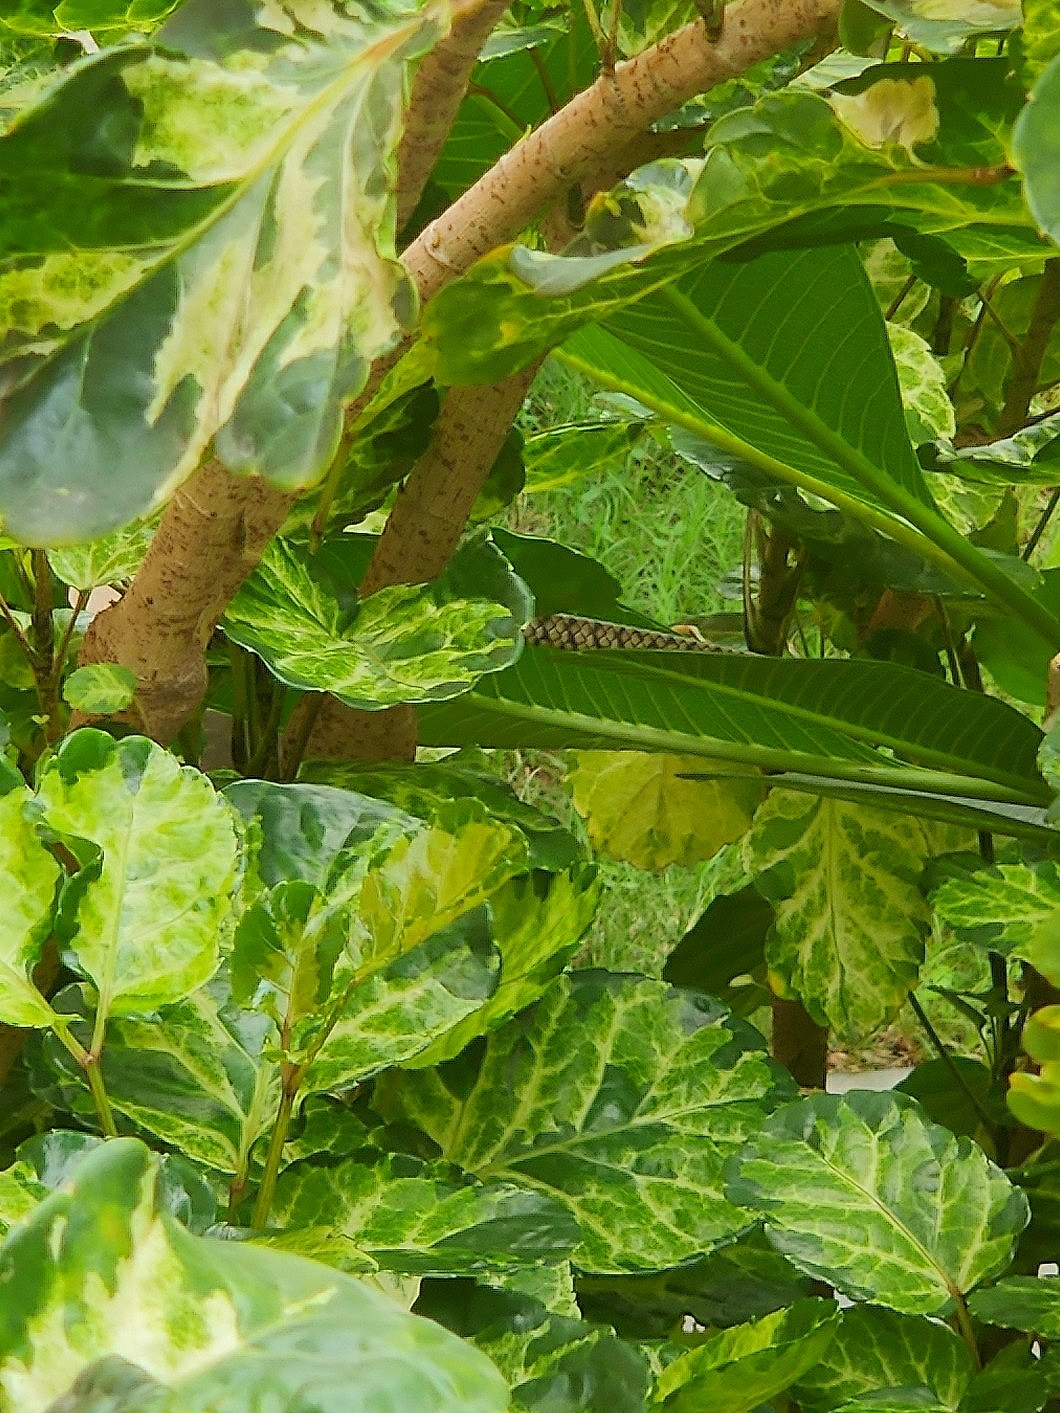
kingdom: Animalia
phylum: Chordata
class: Squamata
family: Colubridae
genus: Ptyas
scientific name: Ptyas mucosa
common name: Oriental ratsnake
